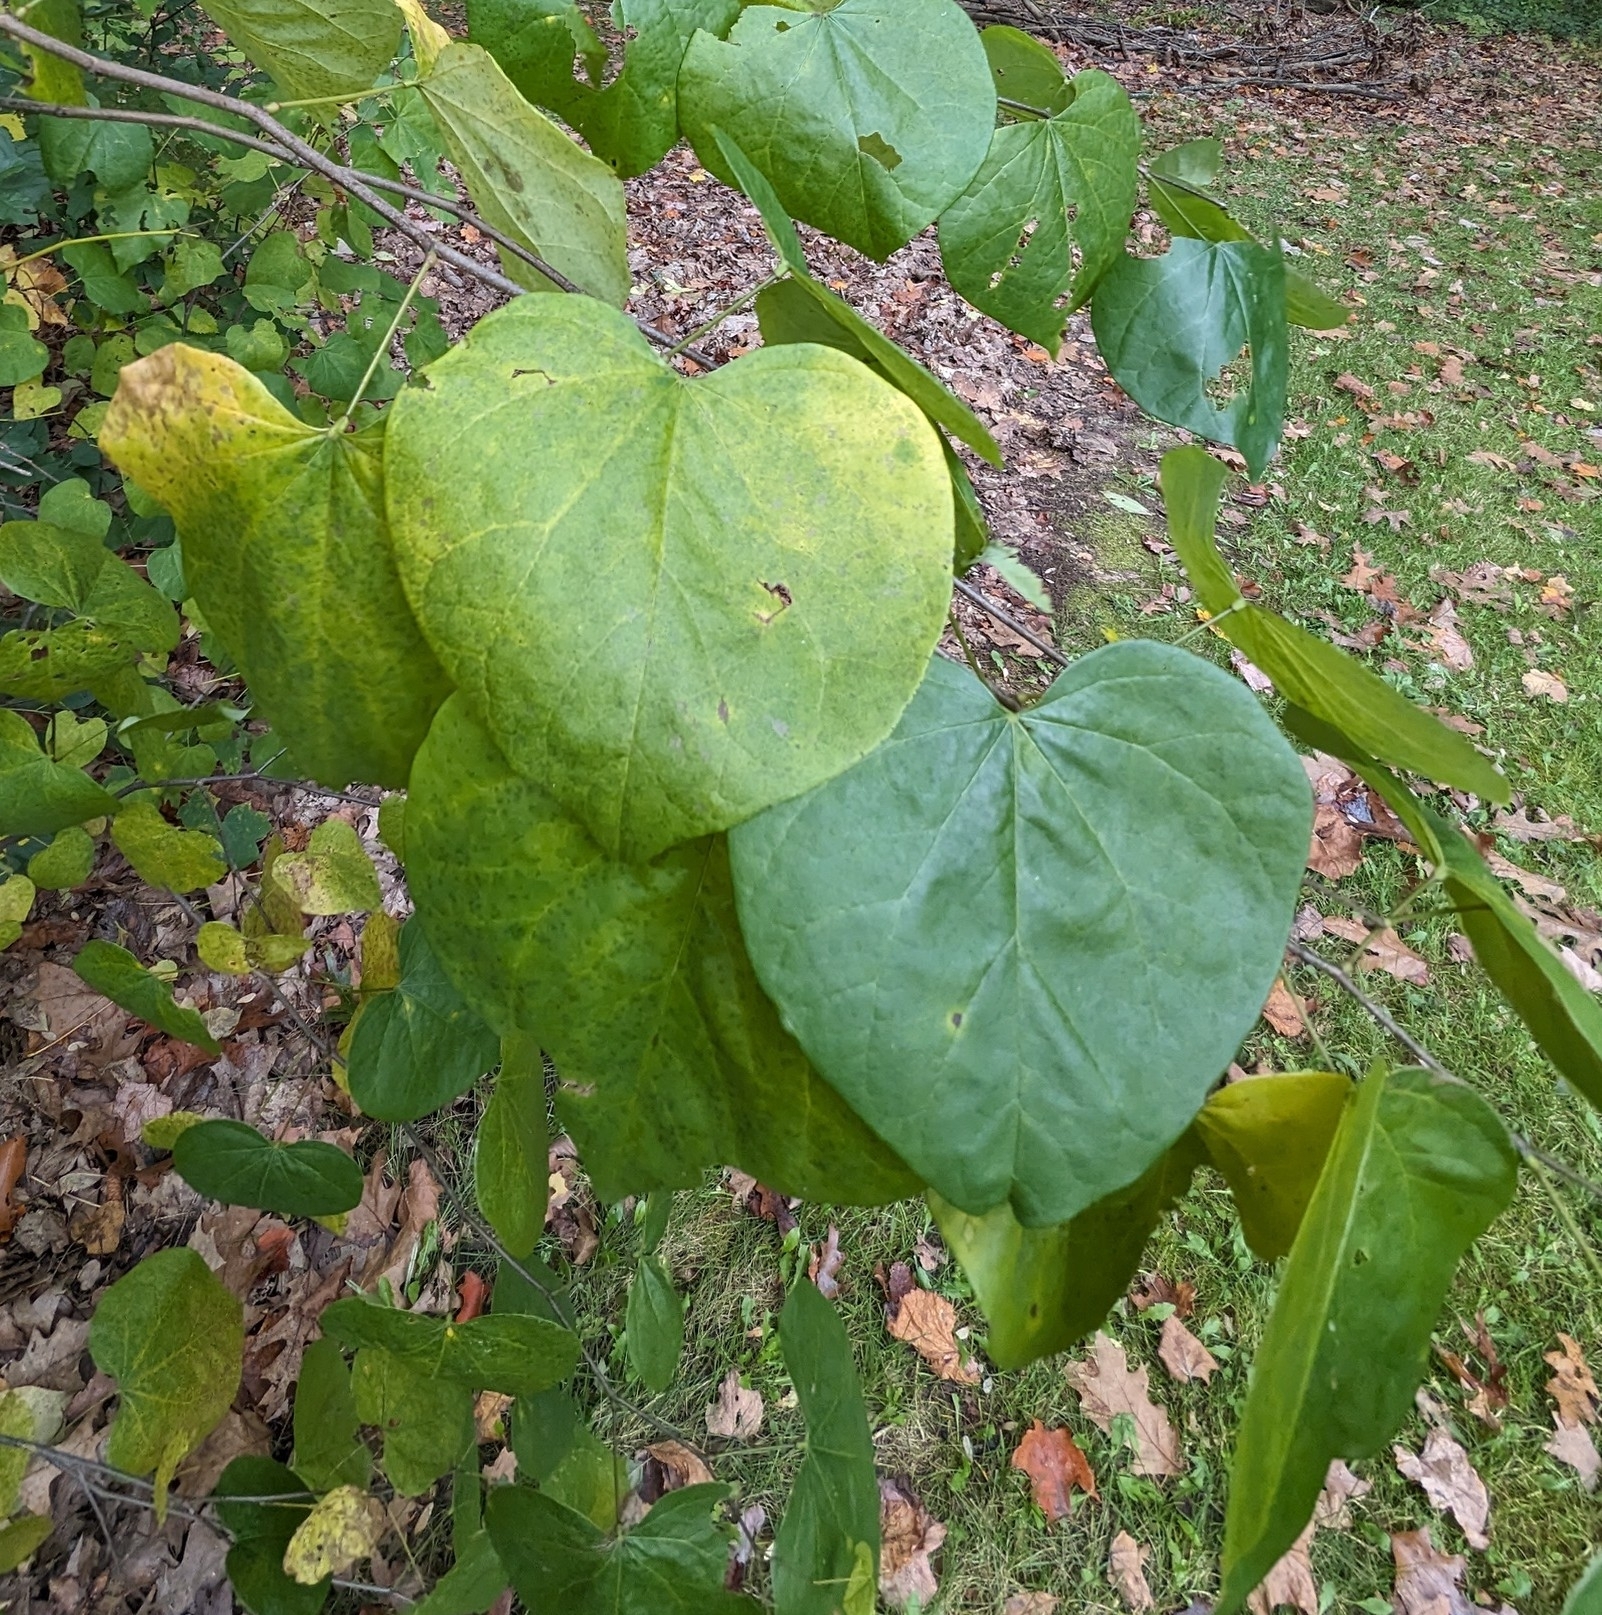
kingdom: Plantae
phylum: Tracheophyta
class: Magnoliopsida
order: Fabales
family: Fabaceae
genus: Cercis
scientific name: Cercis canadensis
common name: Eastern redbud
